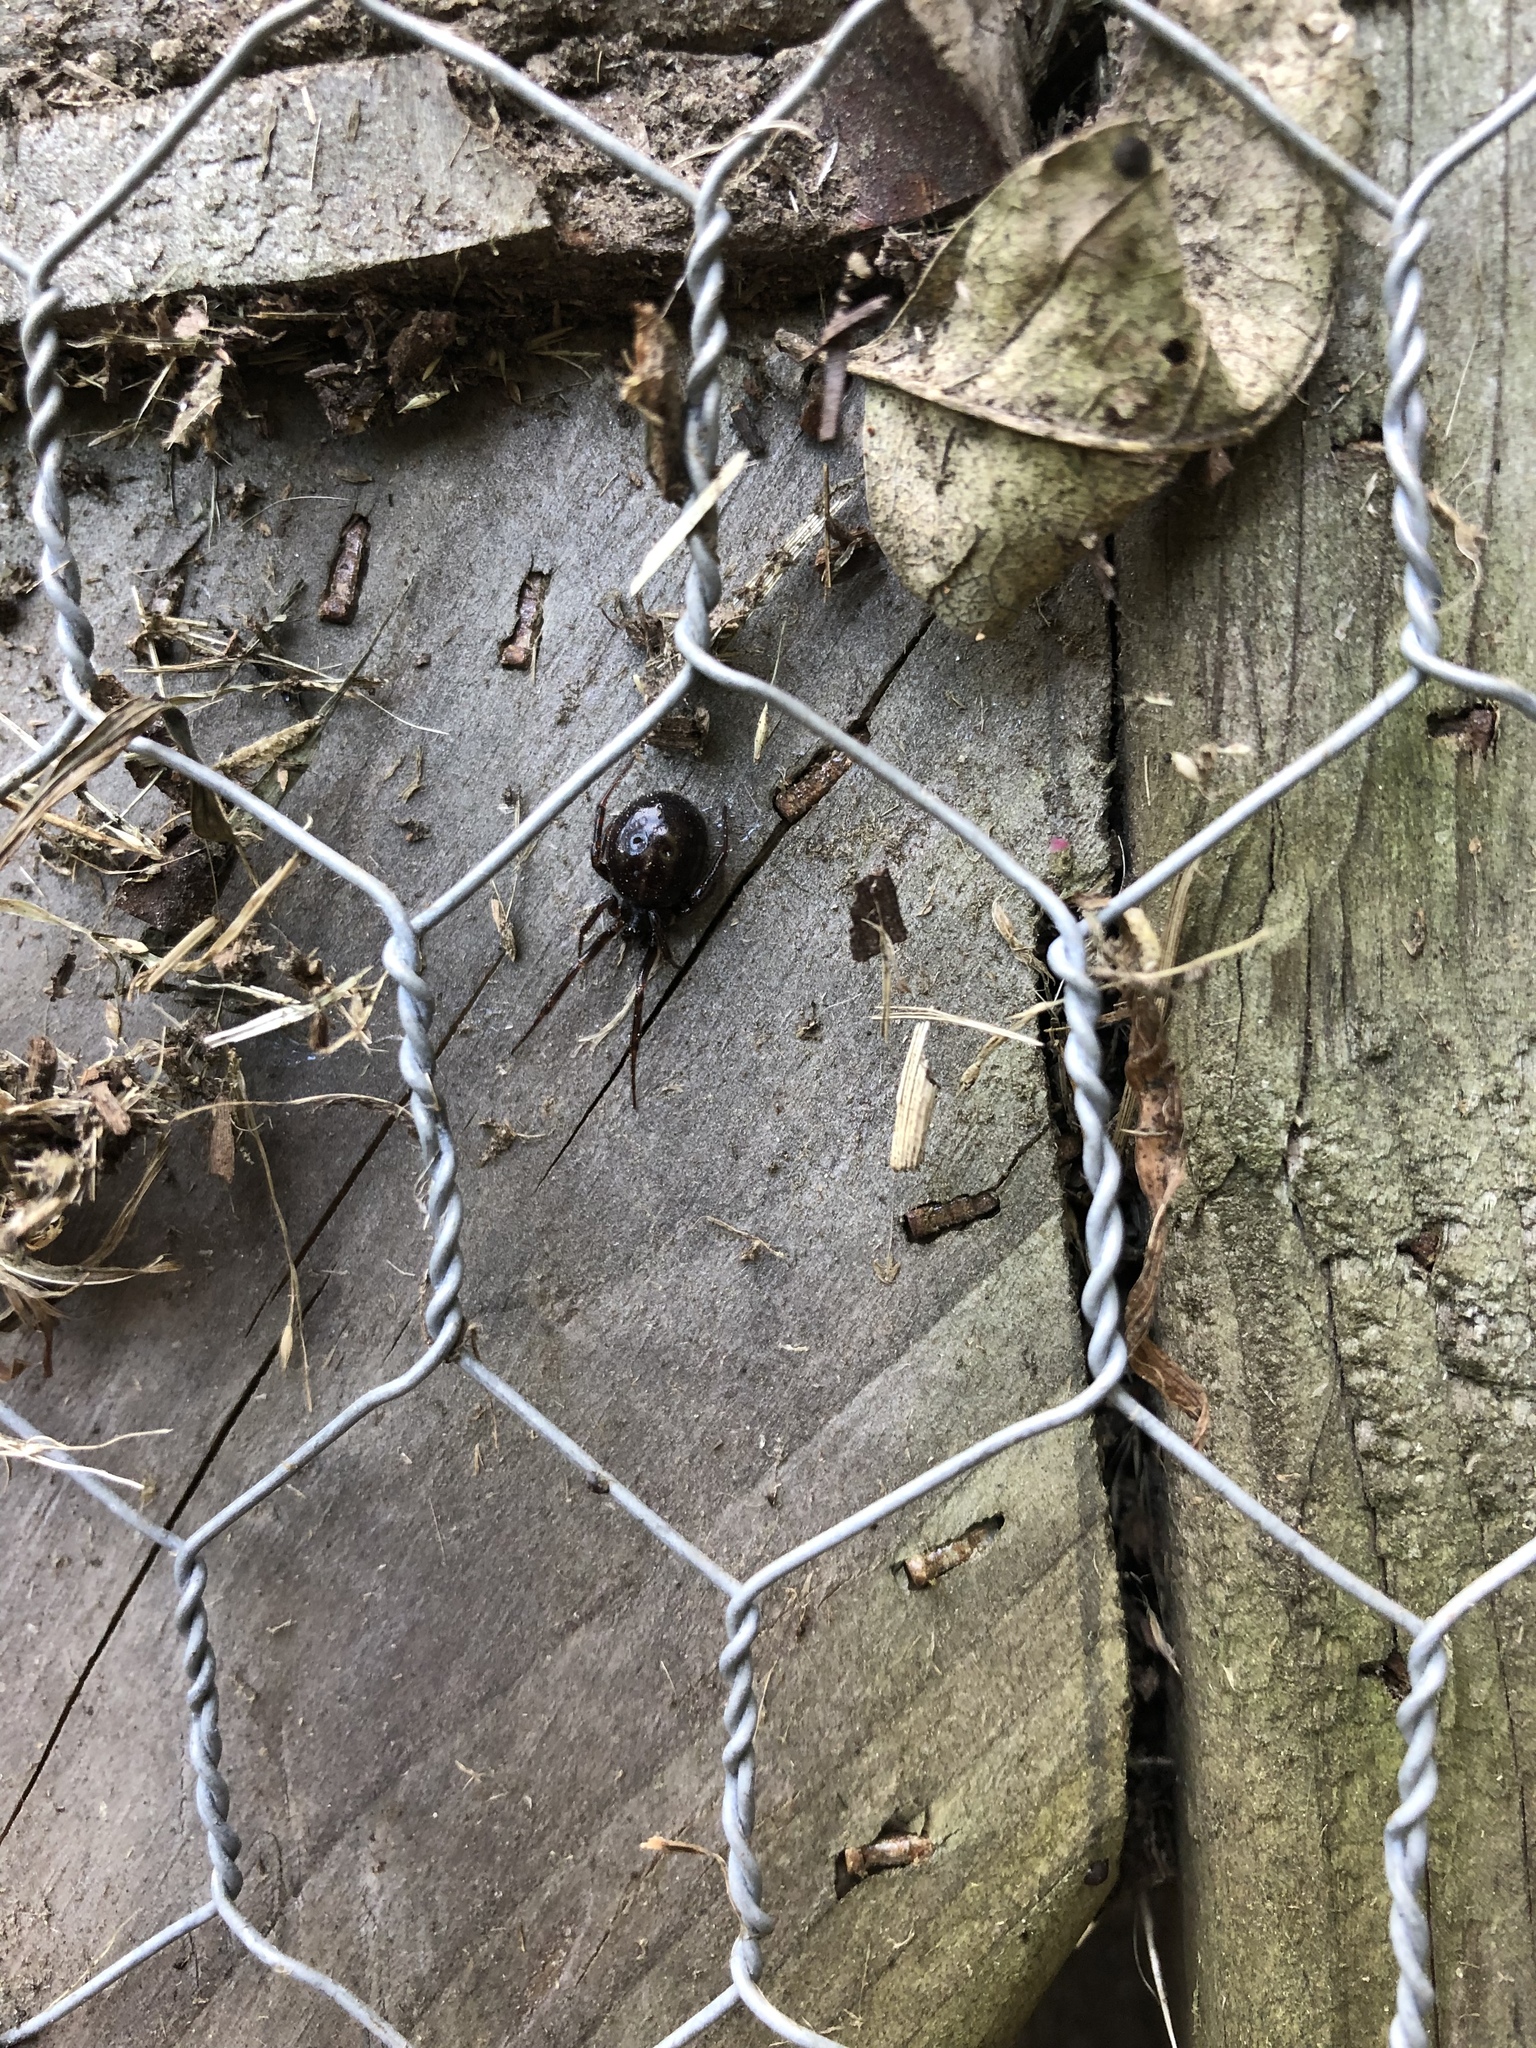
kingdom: Animalia
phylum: Arthropoda
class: Arachnida
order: Araneae
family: Theridiidae
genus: Steatoda
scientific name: Steatoda borealis
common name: Boreal combfoot
